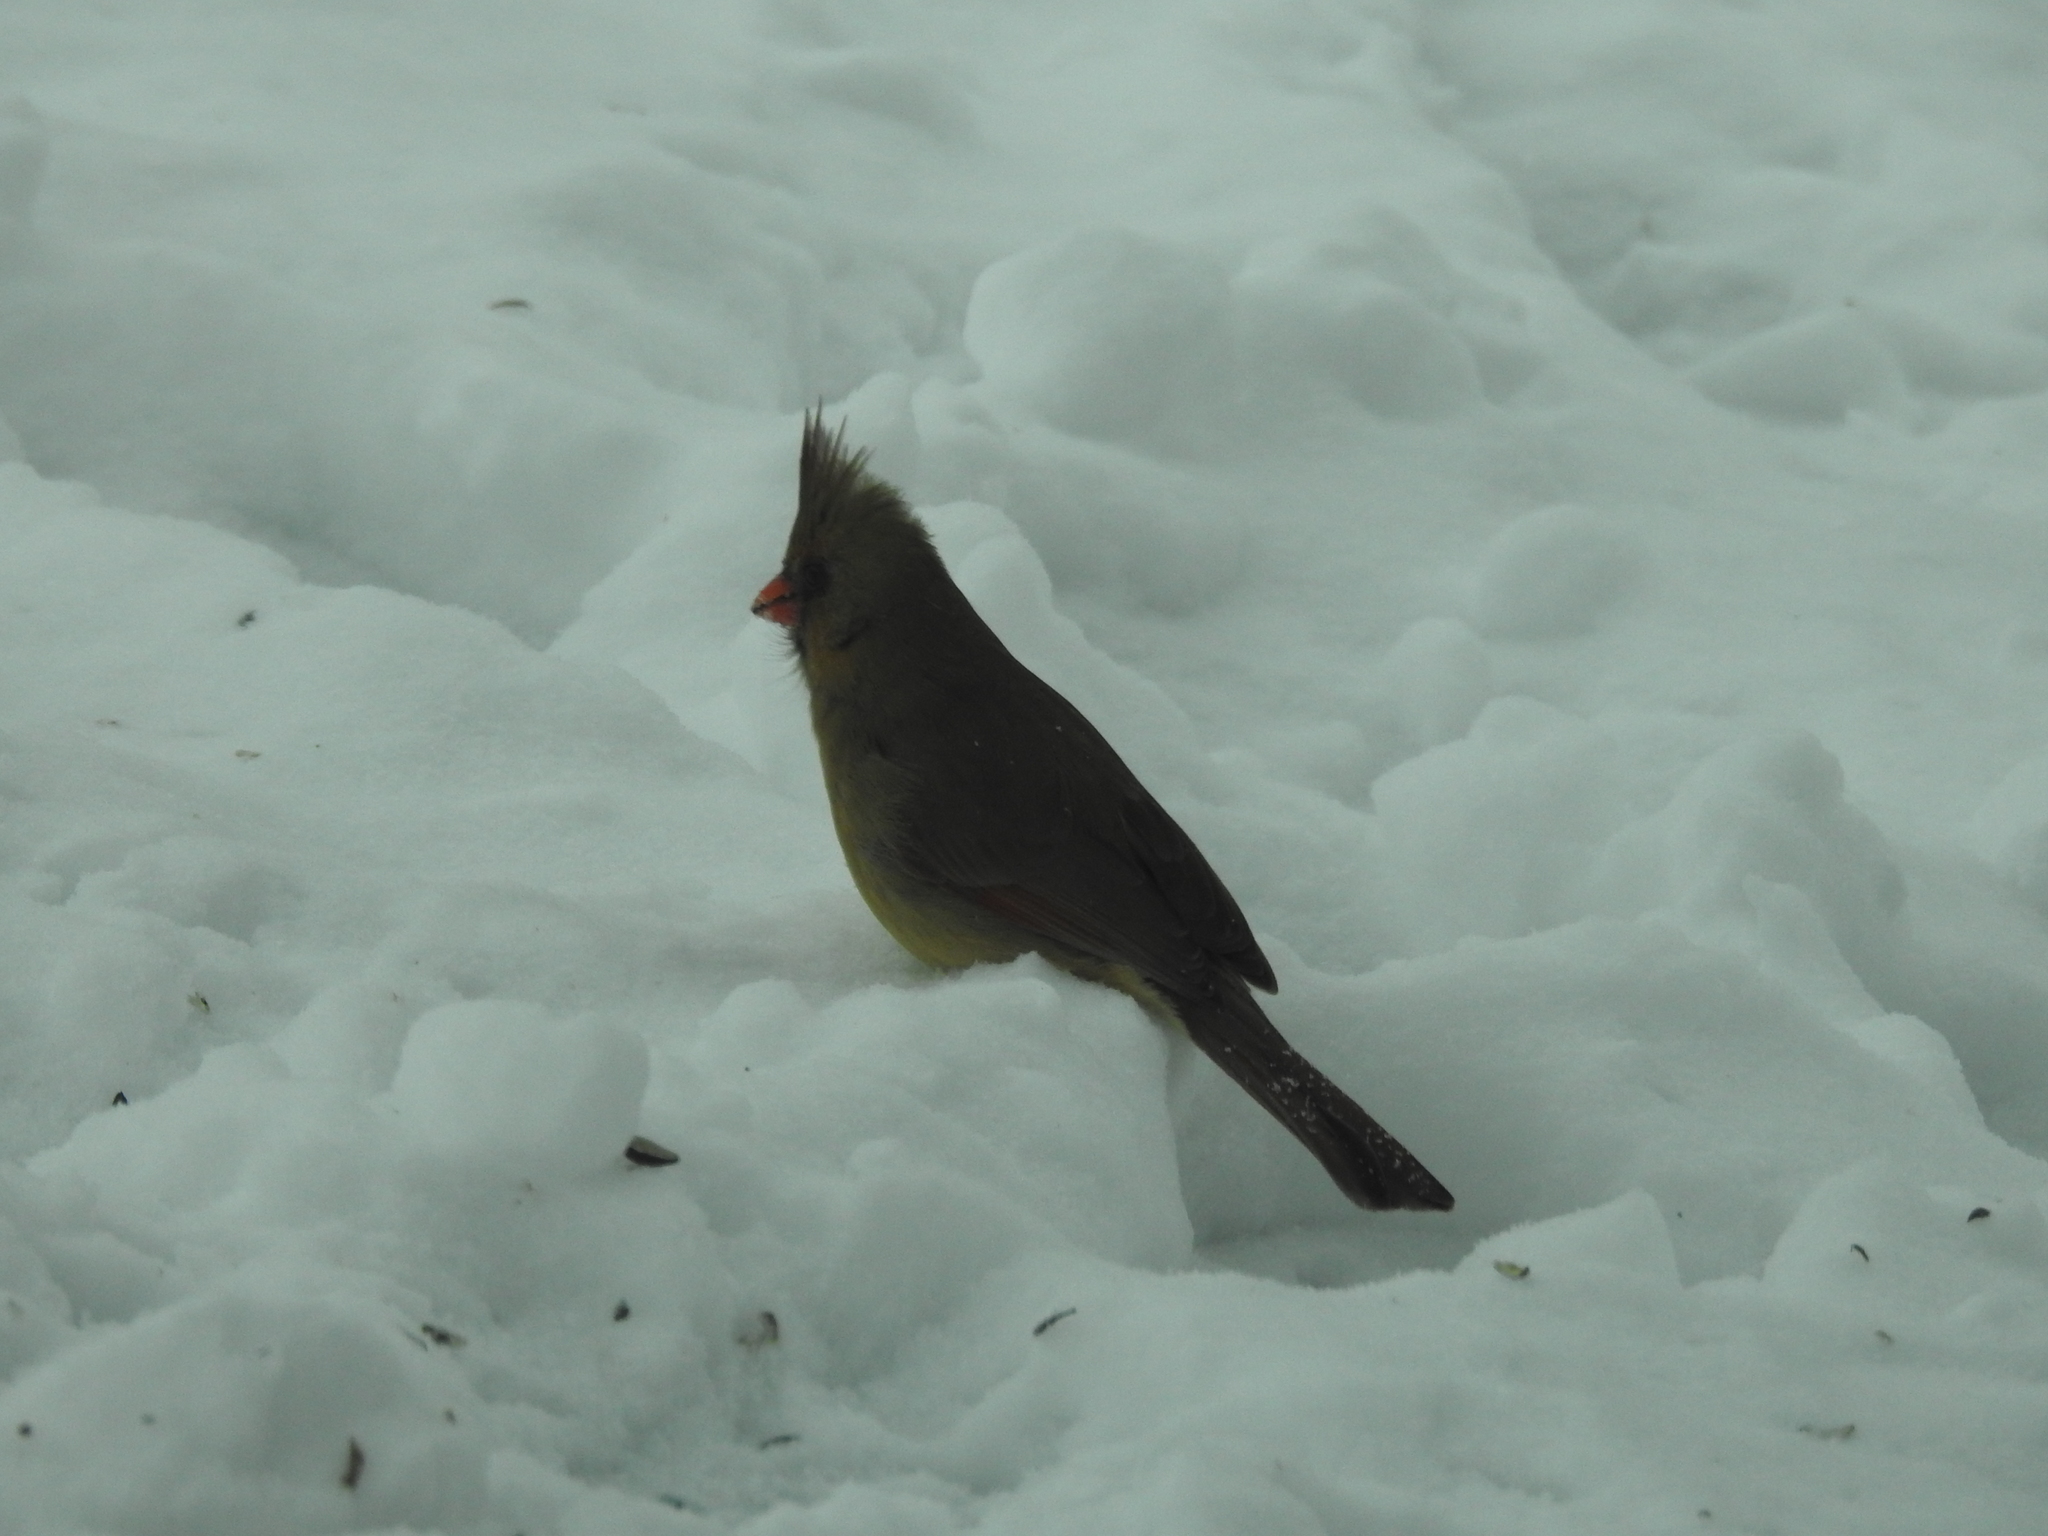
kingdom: Animalia
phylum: Chordata
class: Aves
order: Passeriformes
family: Cardinalidae
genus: Cardinalis
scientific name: Cardinalis cardinalis
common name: Northern cardinal
